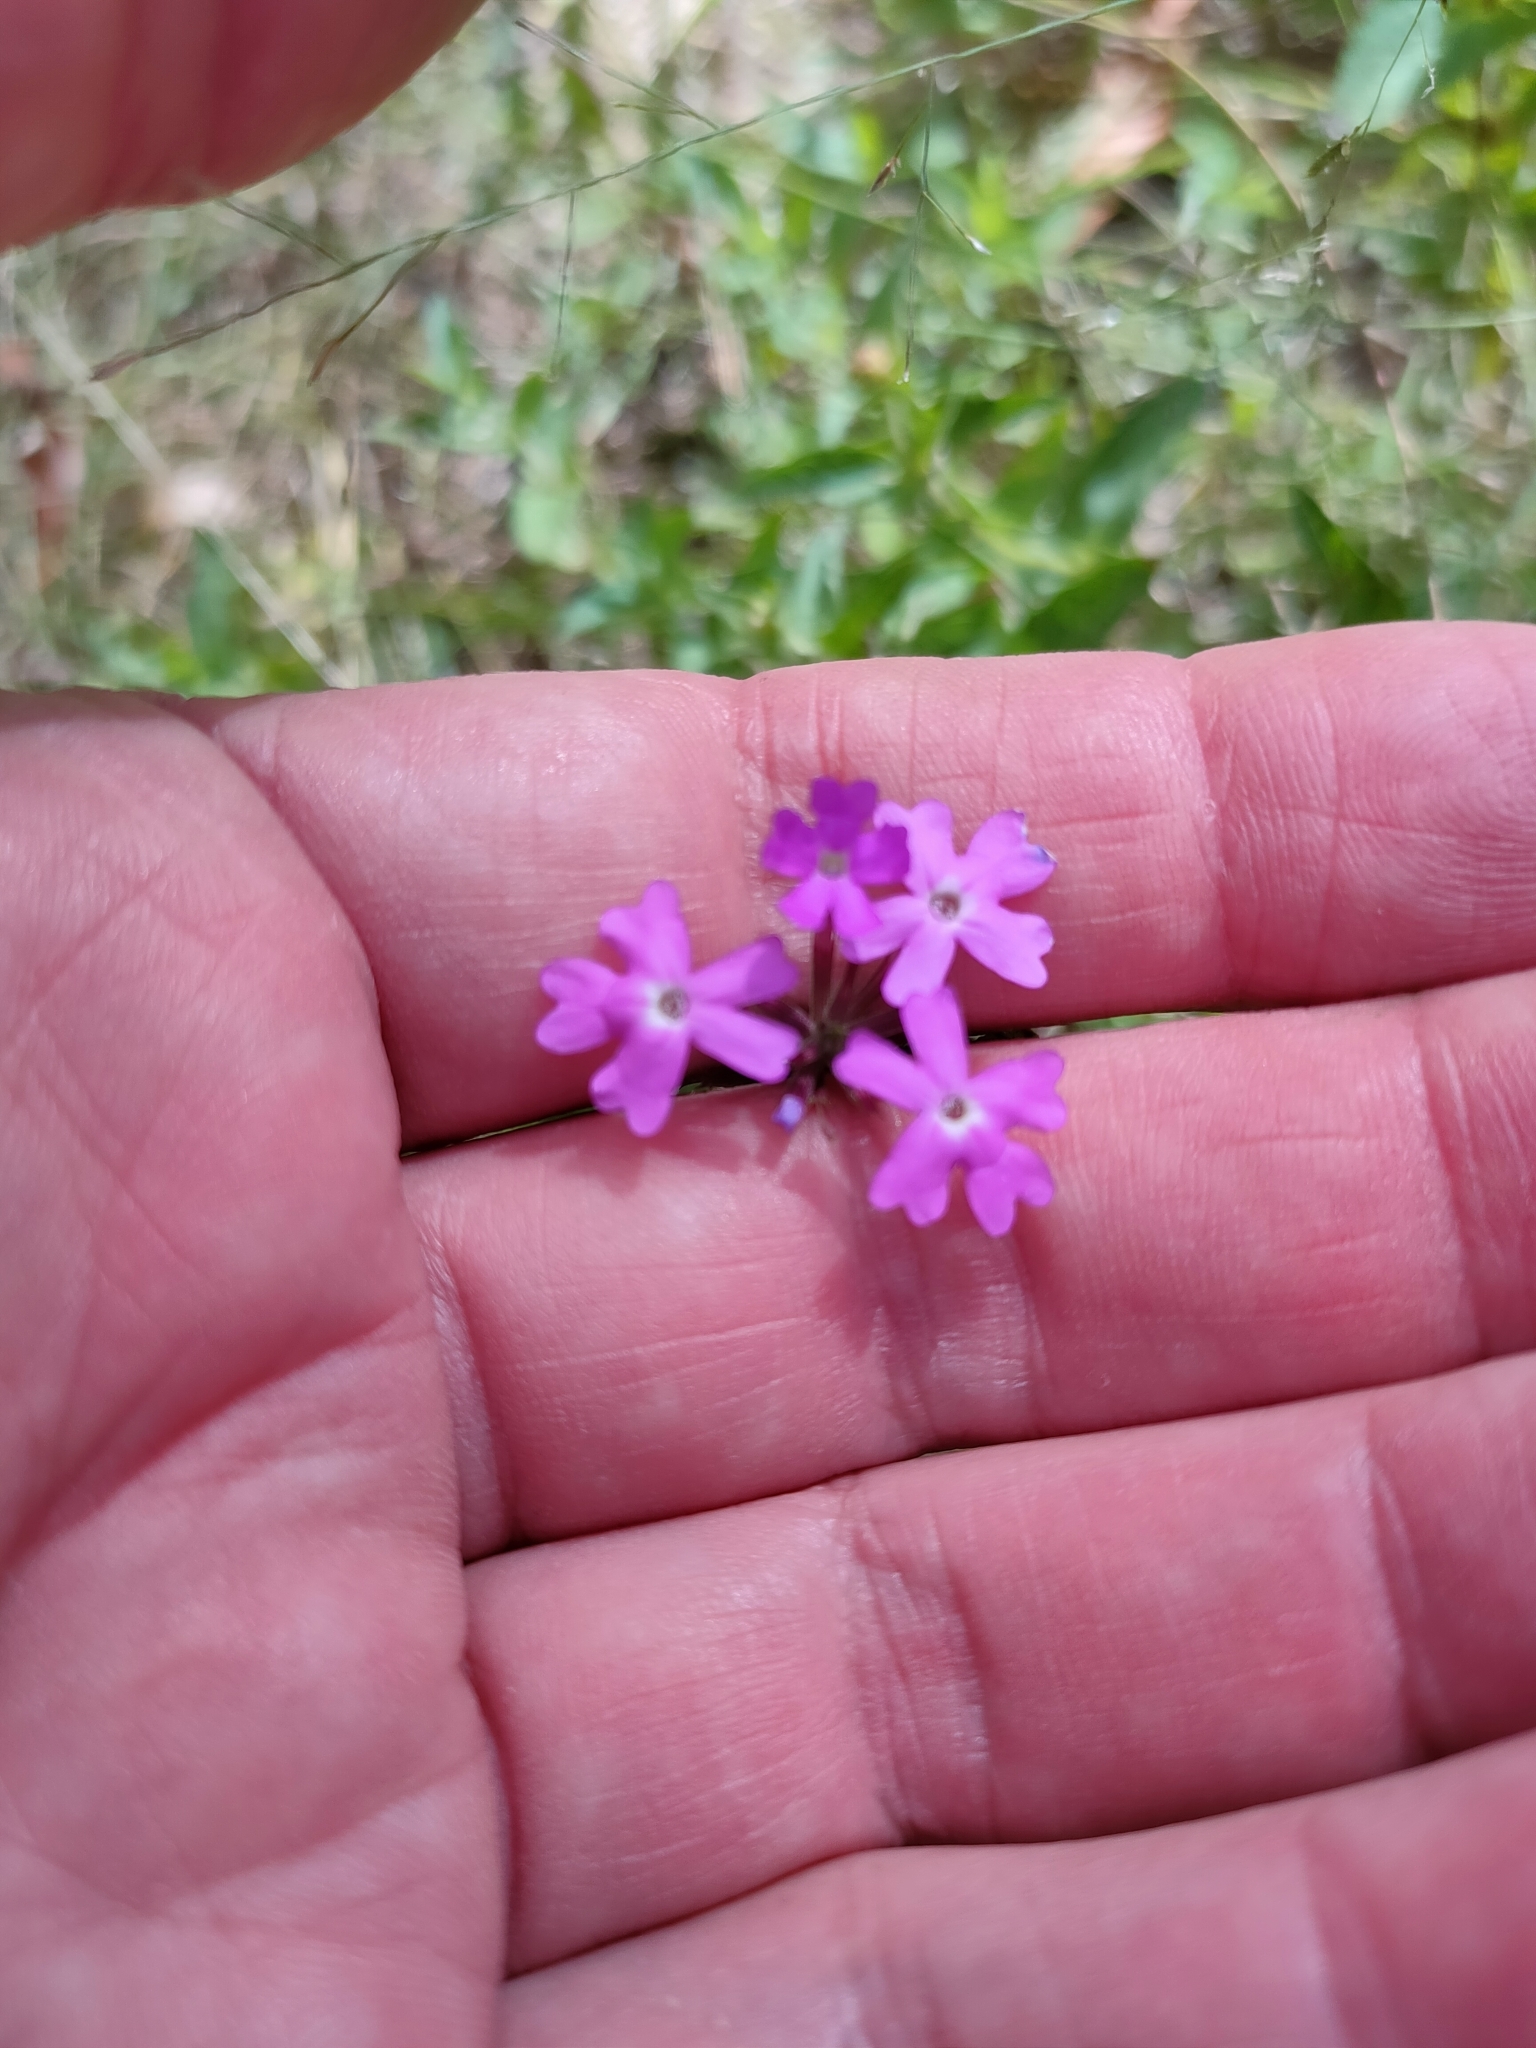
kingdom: Plantae
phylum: Tracheophyta
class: Magnoliopsida
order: Lamiales
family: Verbenaceae
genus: Verbena
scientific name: Verbena aristigera
